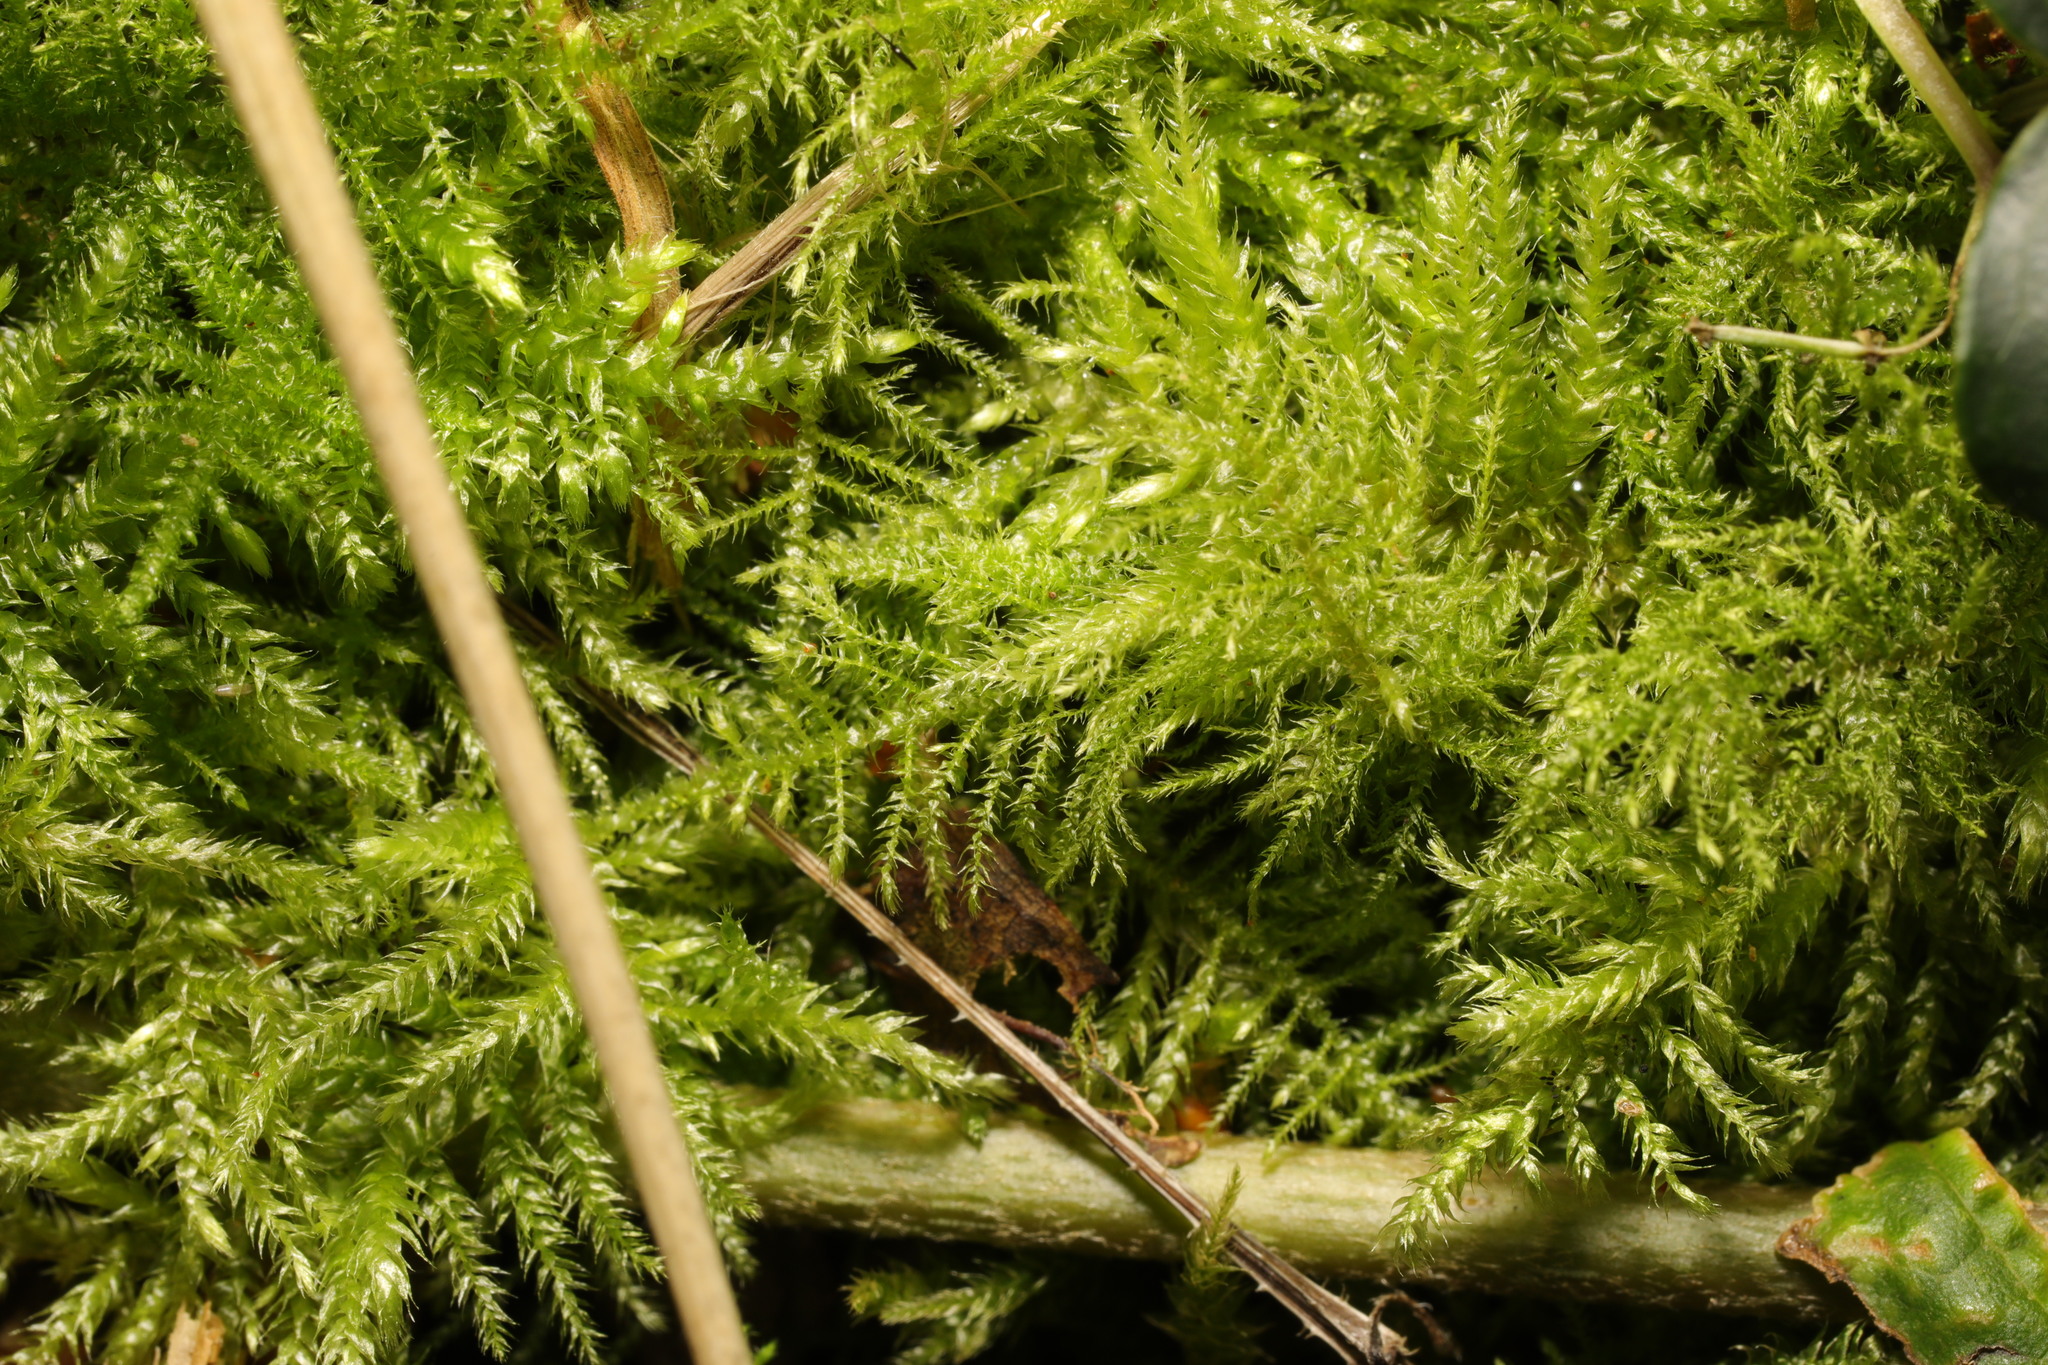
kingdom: Plantae
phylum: Bryophyta
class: Bryopsida
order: Hypnales
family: Brachytheciaceae
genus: Kindbergia
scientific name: Kindbergia praelonga
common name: Slender beaked moss
